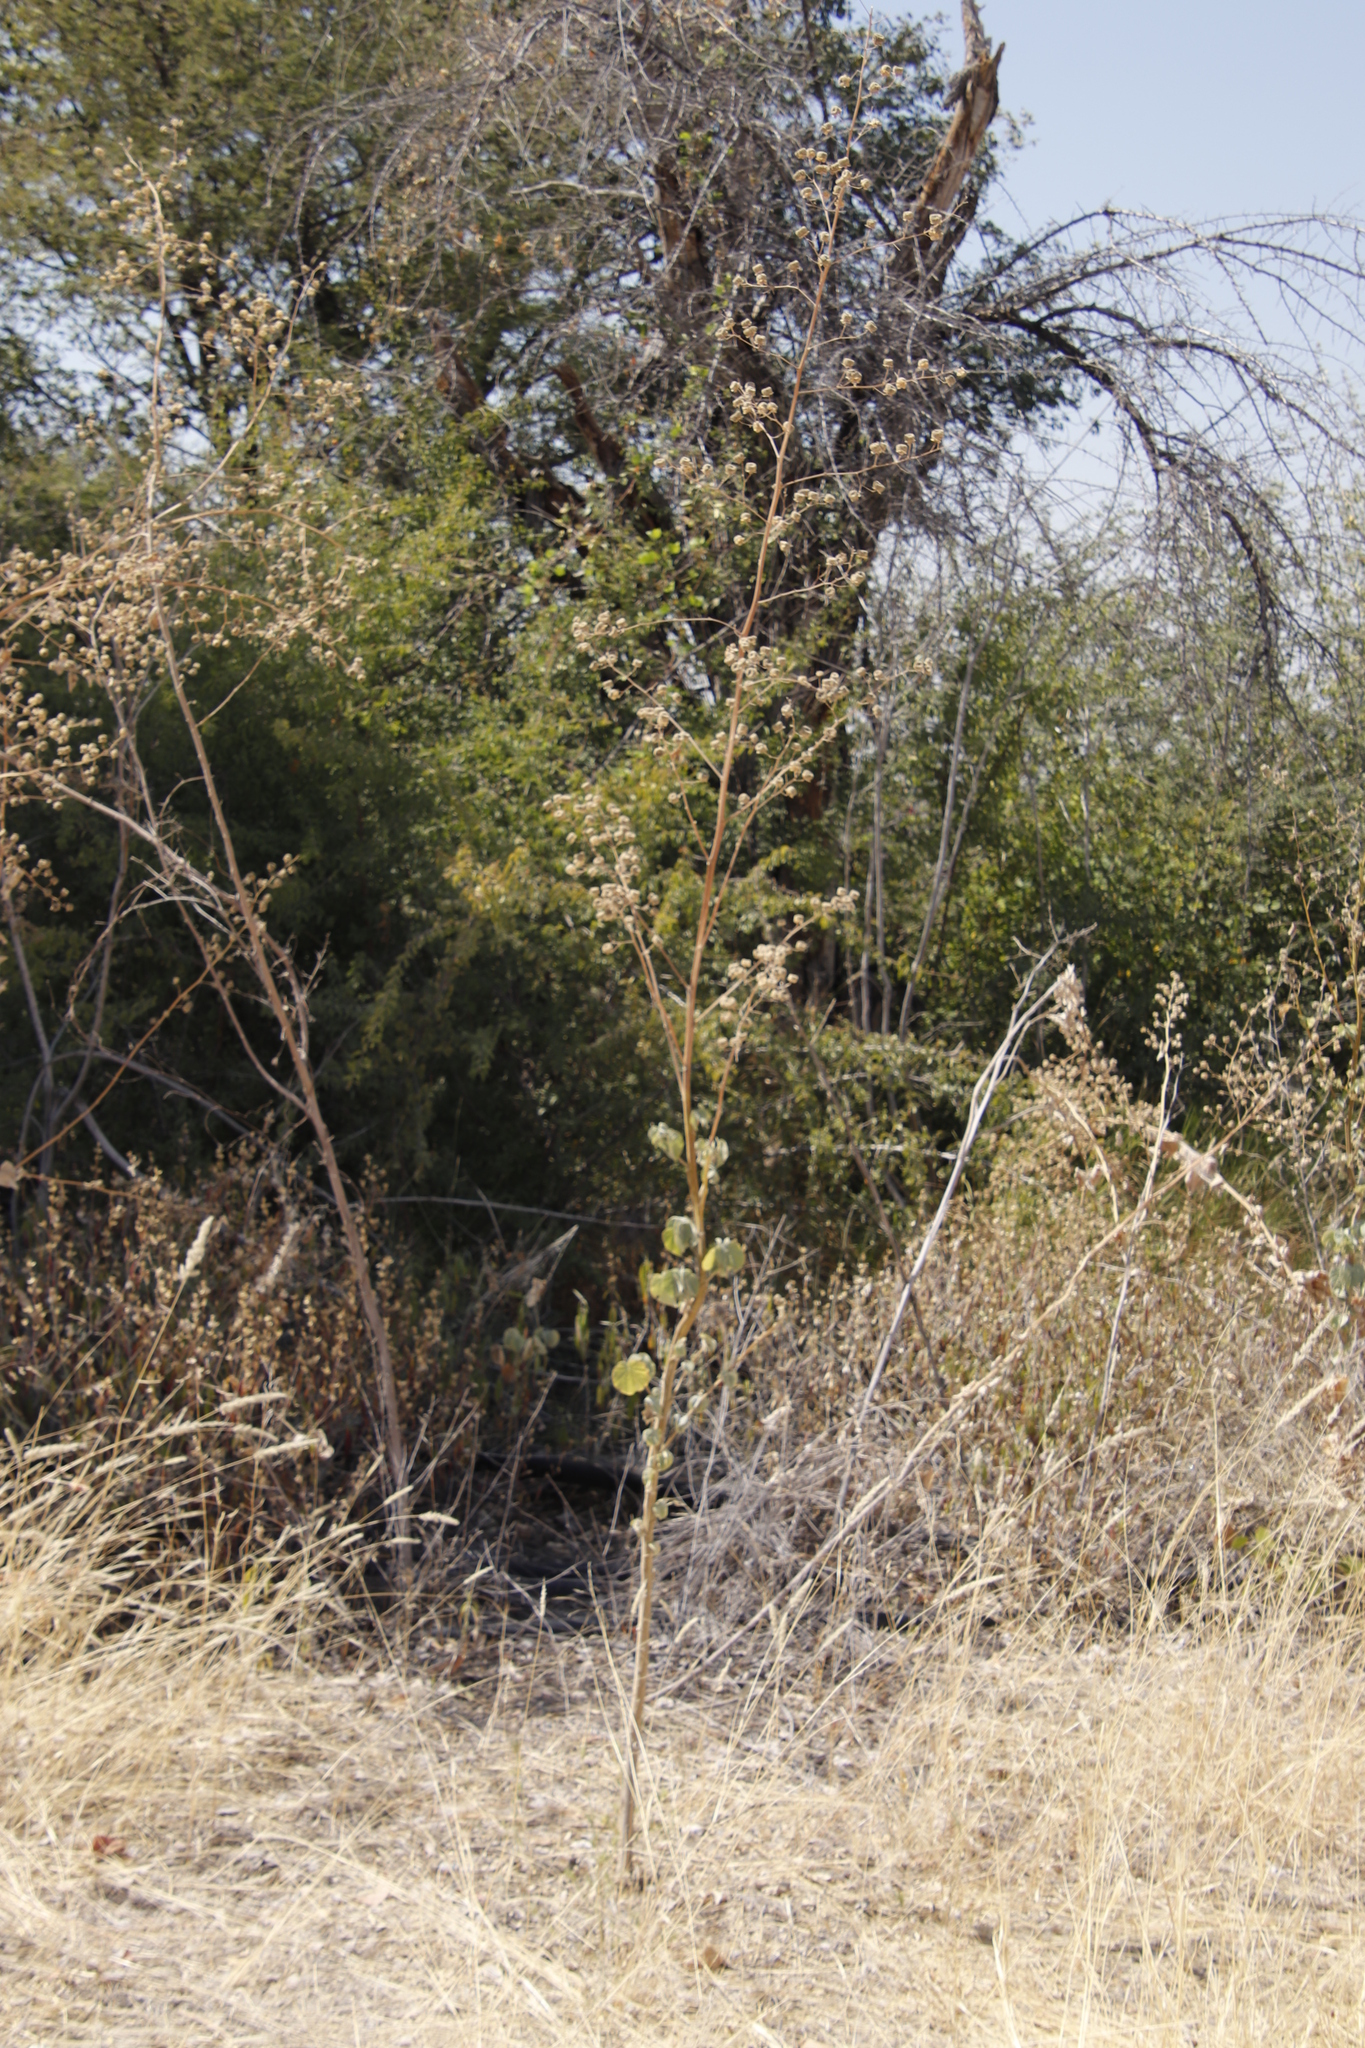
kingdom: Plantae
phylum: Tracheophyta
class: Magnoliopsida
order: Malvales
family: Malvaceae
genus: Abutilon
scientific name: Abutilon angulatum
